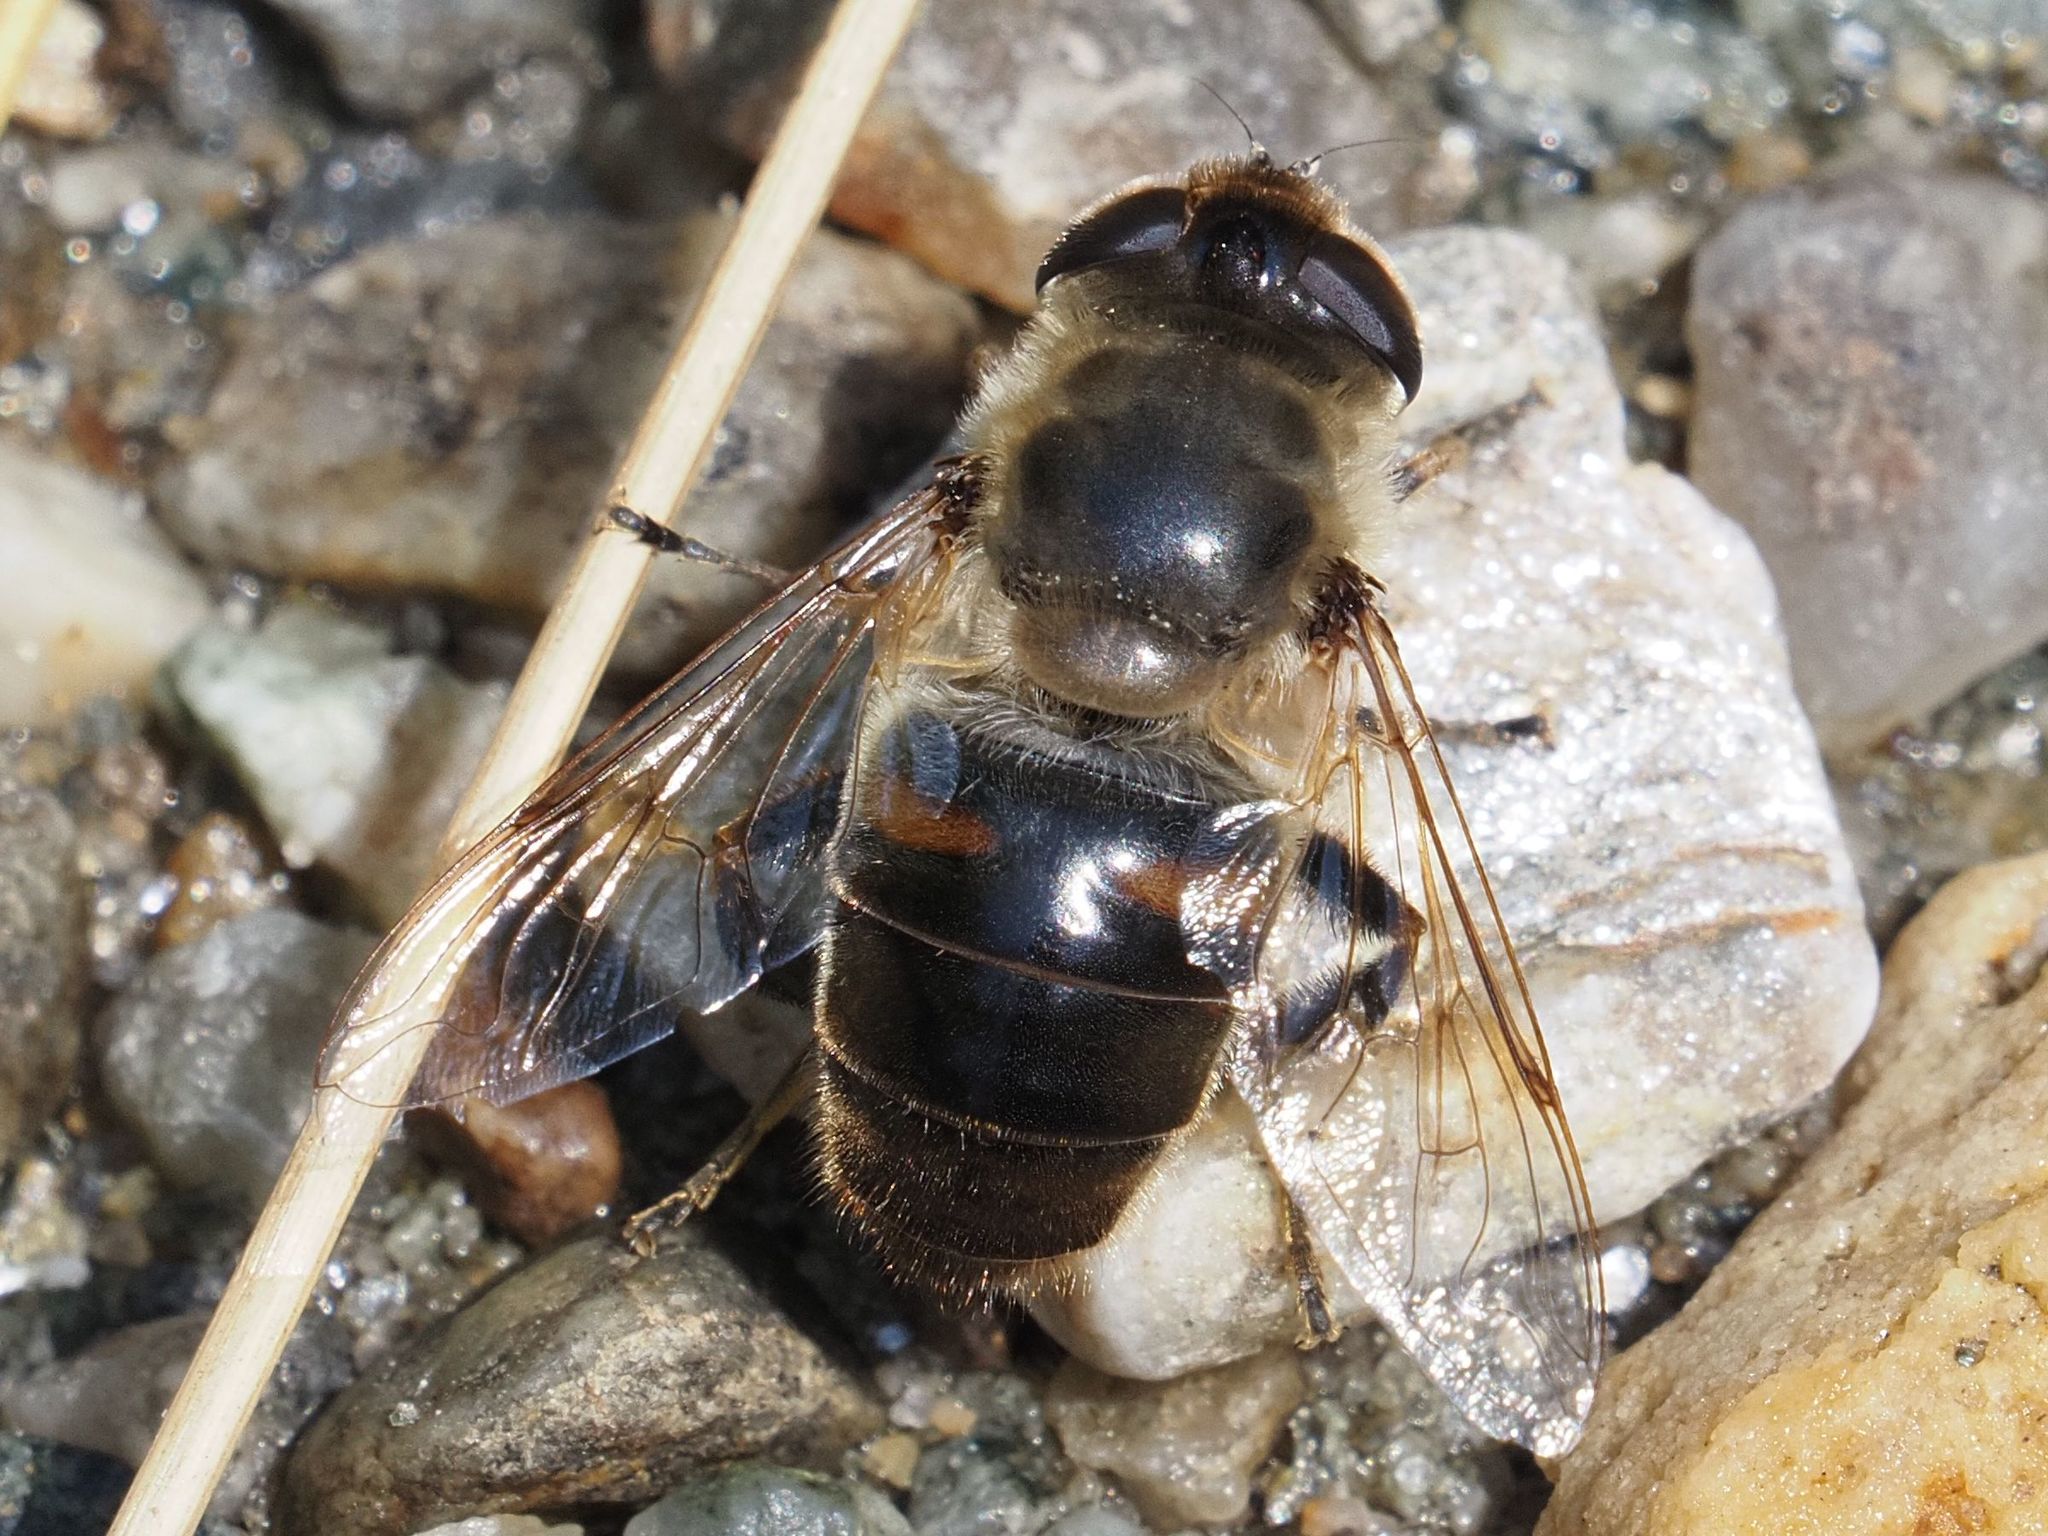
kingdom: Animalia
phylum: Arthropoda
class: Insecta
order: Diptera
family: Syrphidae
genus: Eristalis
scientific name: Eristalis tenax
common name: Drone fly
